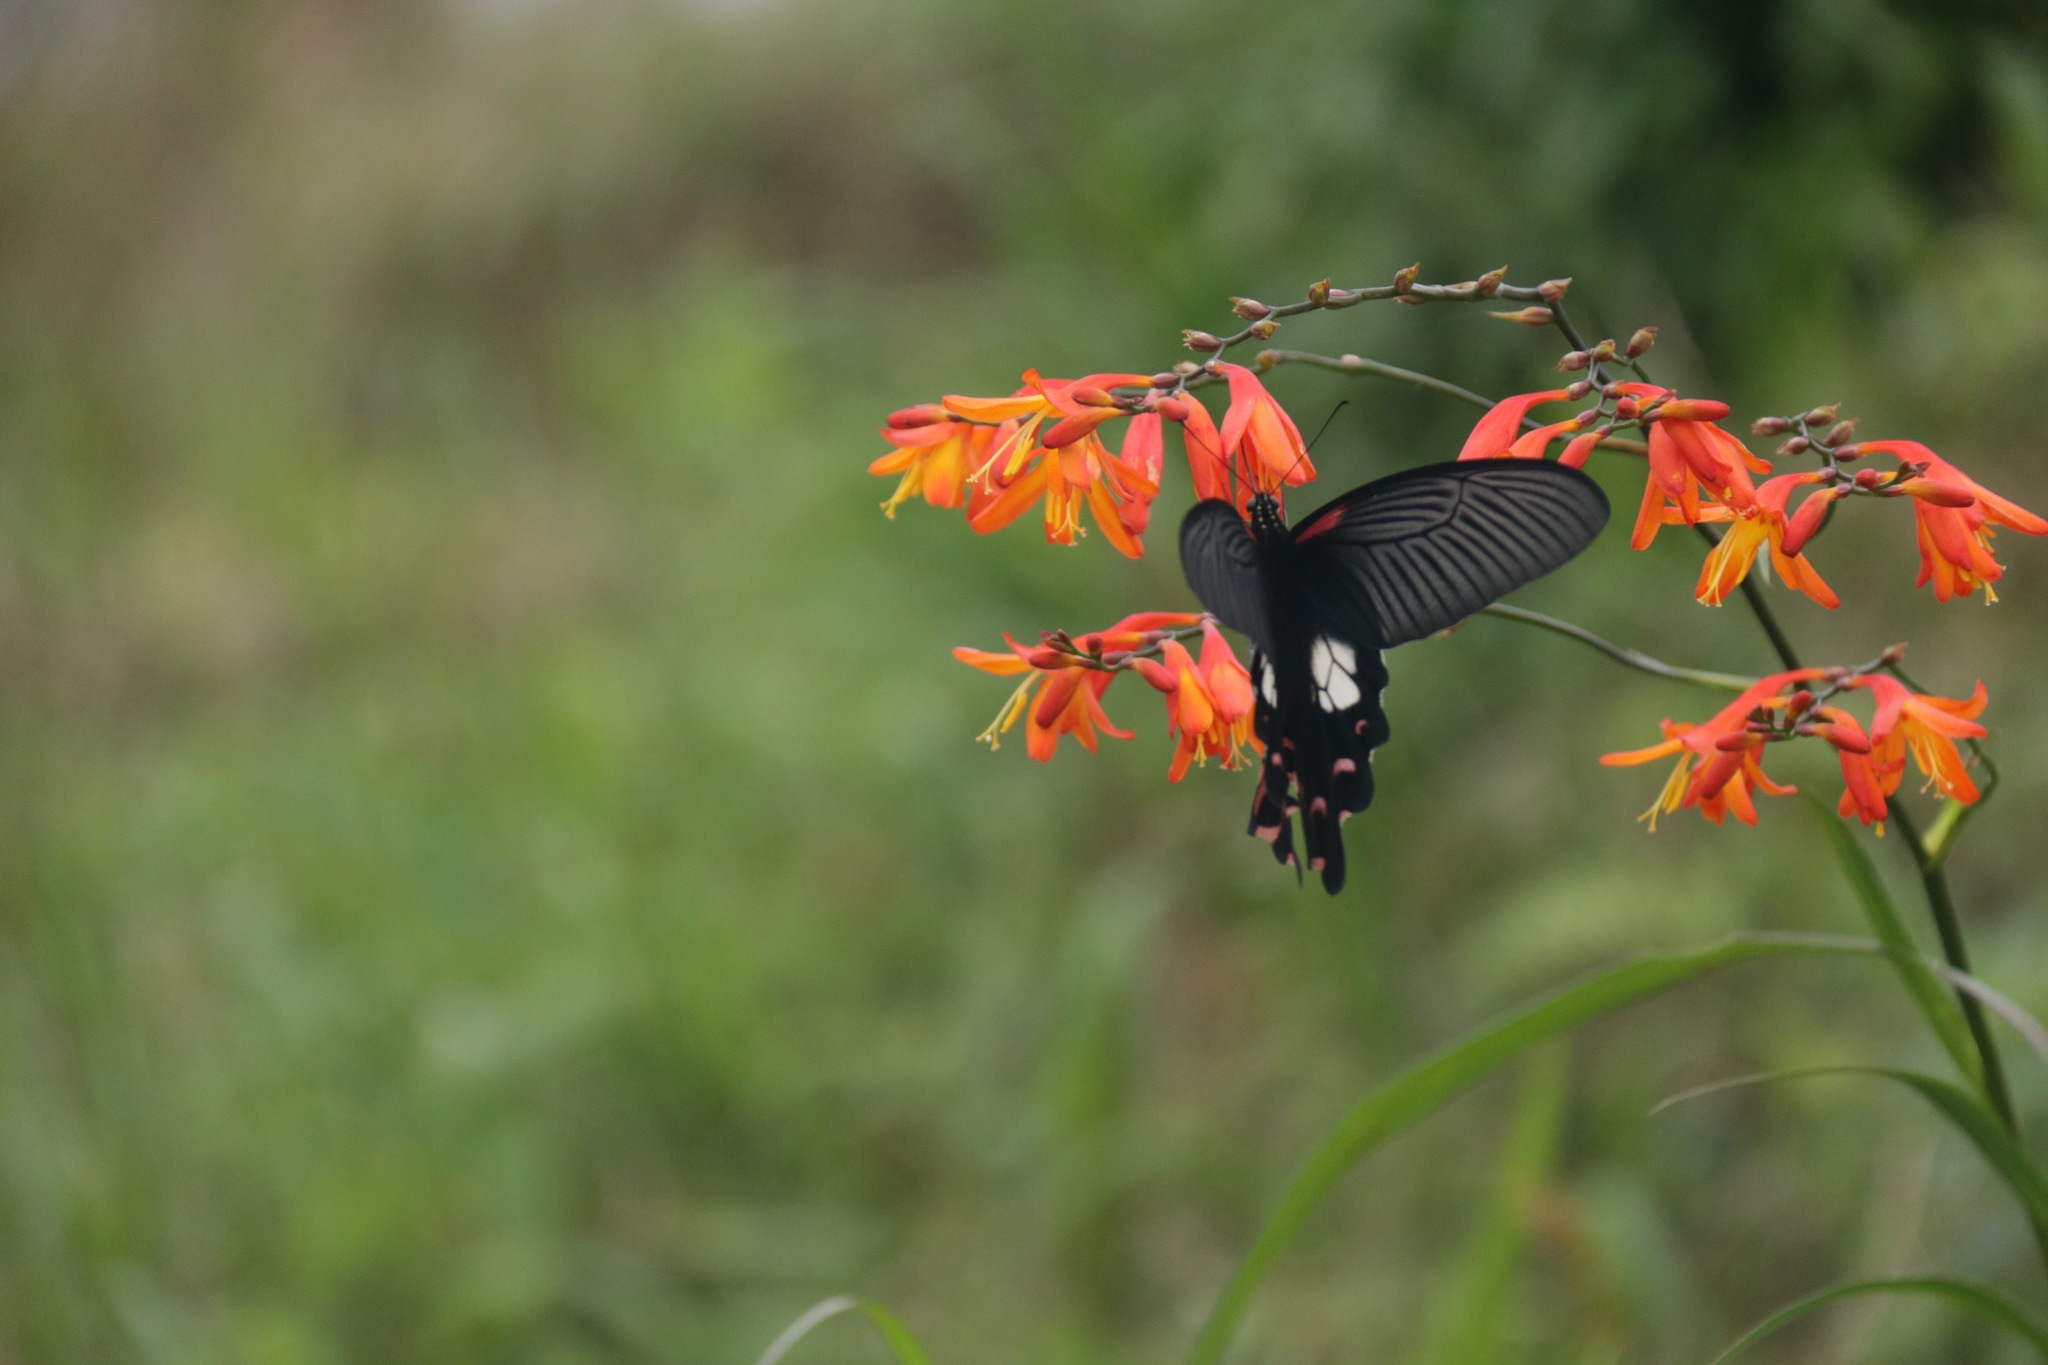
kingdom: Animalia
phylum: Arthropoda
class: Insecta
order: Lepidoptera
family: Papilionidae
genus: Papilio
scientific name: Papilio alcmenor
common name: Redbreast
